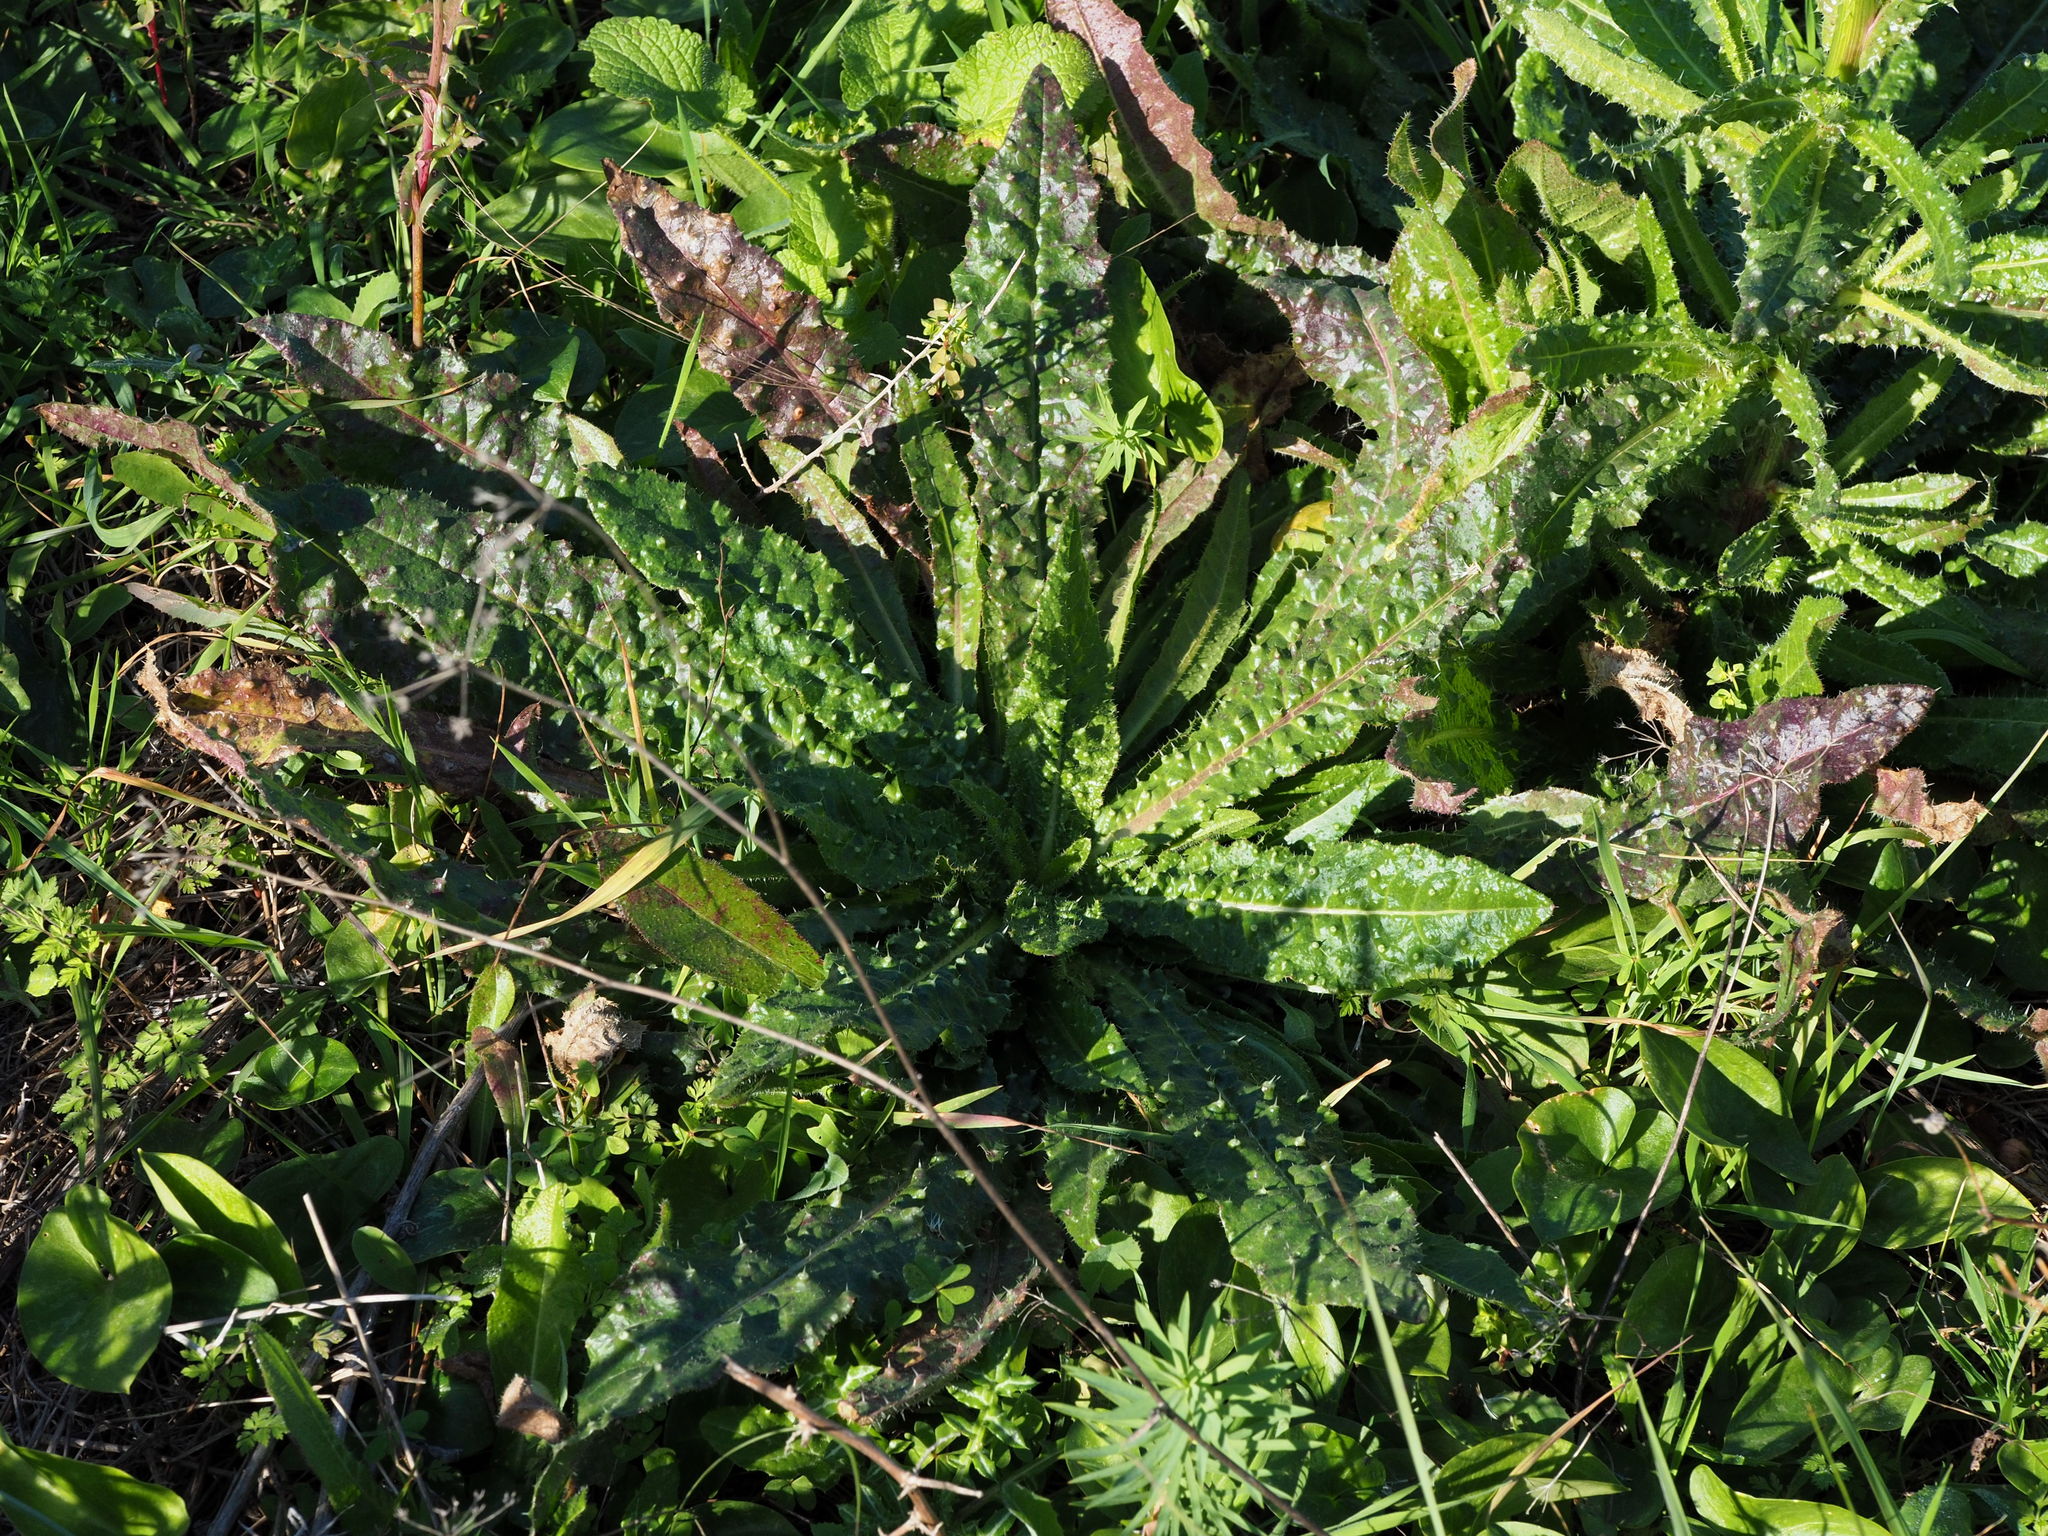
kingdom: Plantae
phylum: Tracheophyta
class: Magnoliopsida
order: Asterales
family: Asteraceae
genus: Helminthotheca
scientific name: Helminthotheca echioides
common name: Ox-tongue
